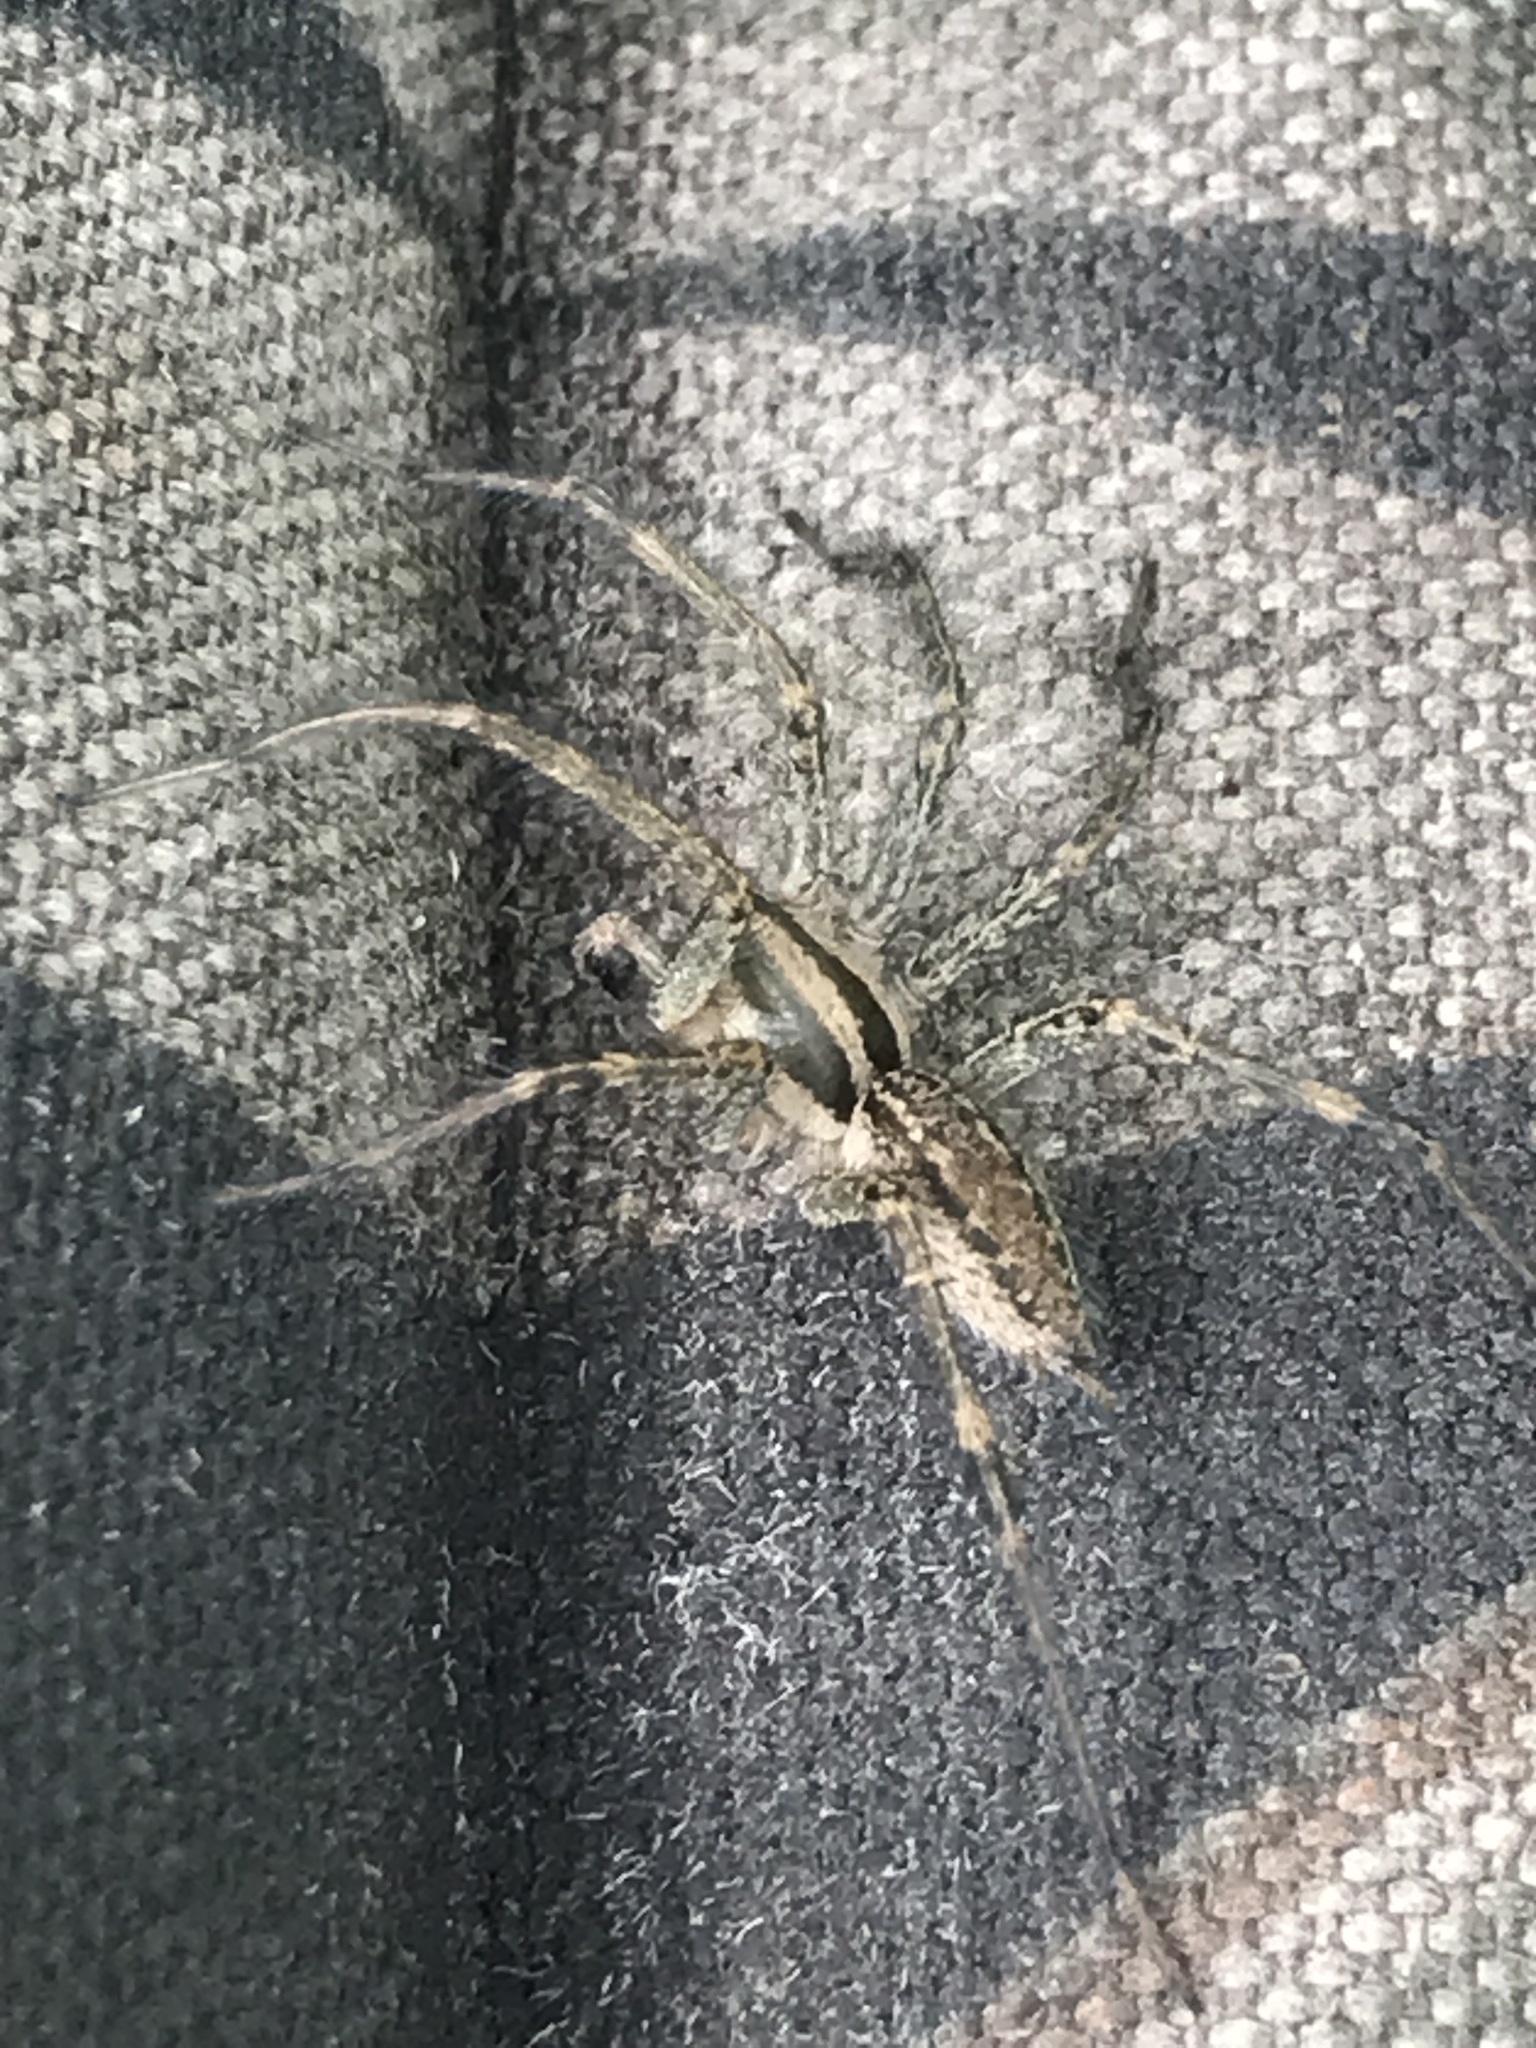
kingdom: Animalia
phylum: Arthropoda
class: Arachnida
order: Araneae
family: Agelenidae
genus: Agelenopsis
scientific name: Agelenopsis
